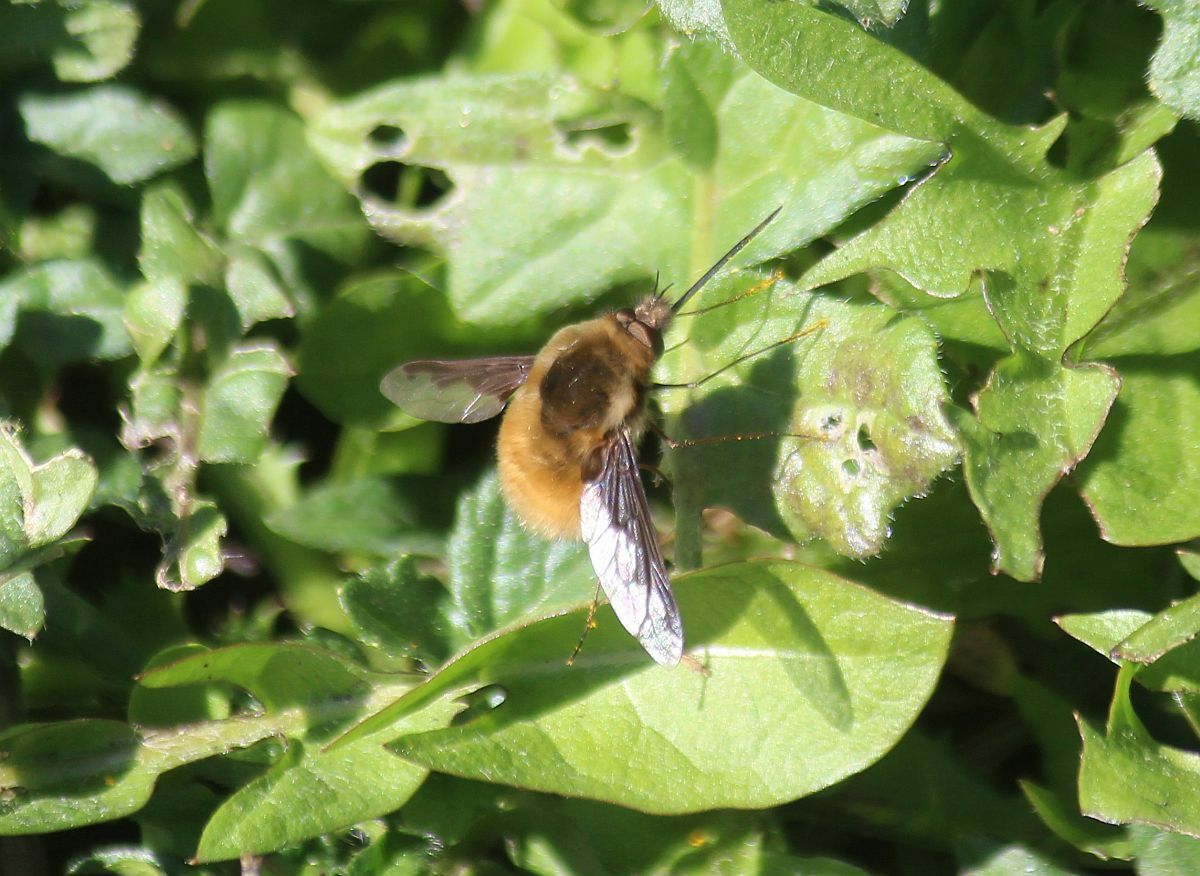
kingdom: Animalia
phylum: Arthropoda
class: Insecta
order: Diptera
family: Bombyliidae
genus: Bombylius
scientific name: Bombylius major
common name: Bee fly
